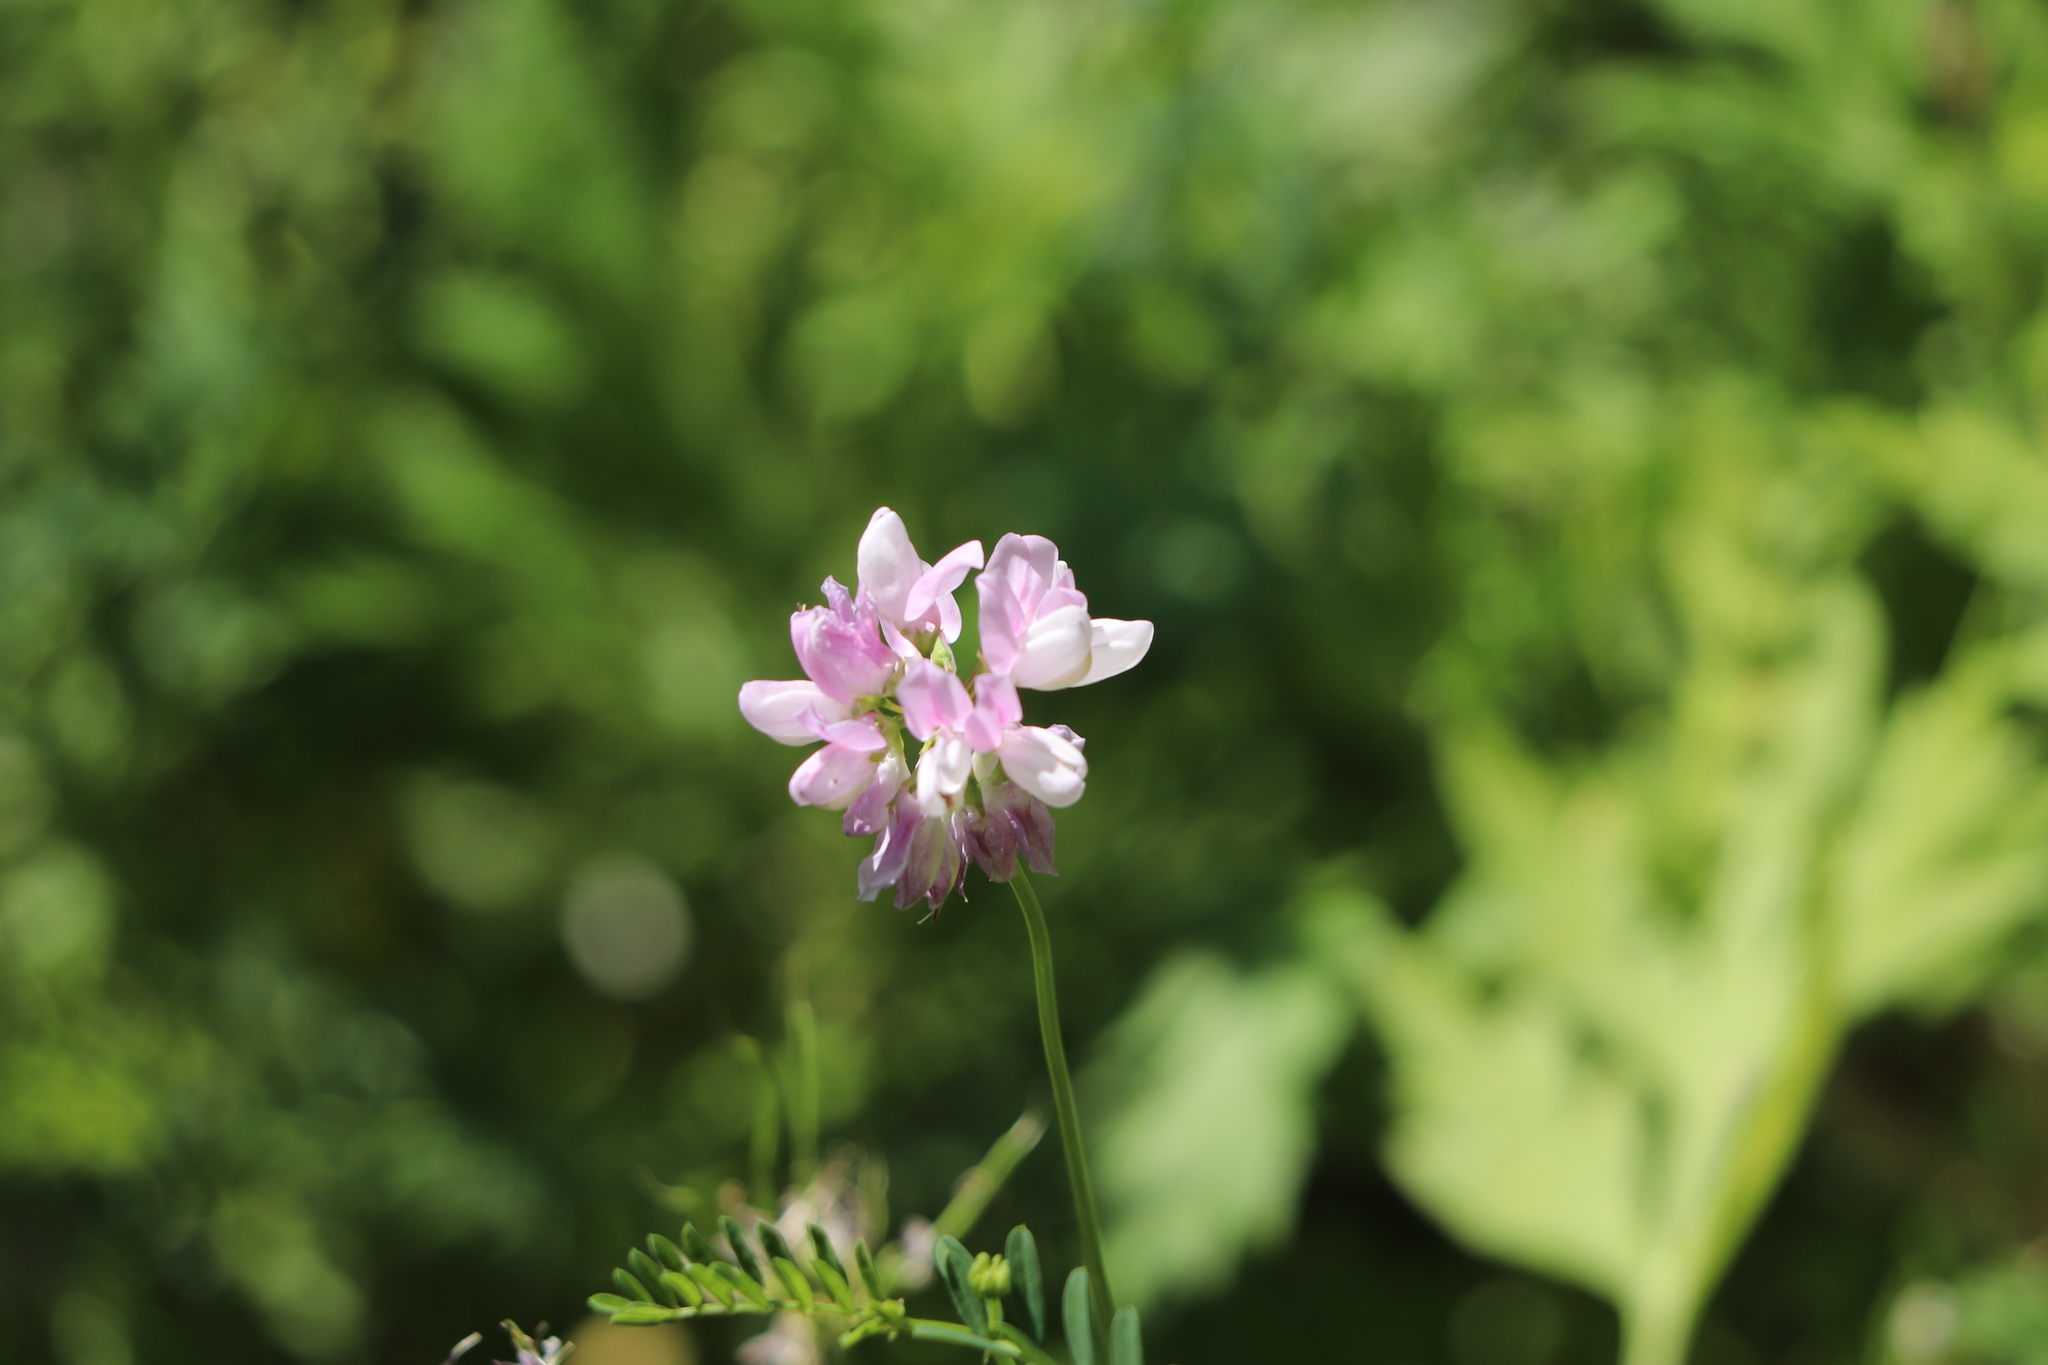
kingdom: Plantae
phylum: Tracheophyta
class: Magnoliopsida
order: Fabales
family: Fabaceae
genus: Coronilla
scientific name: Coronilla varia
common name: Crownvetch
